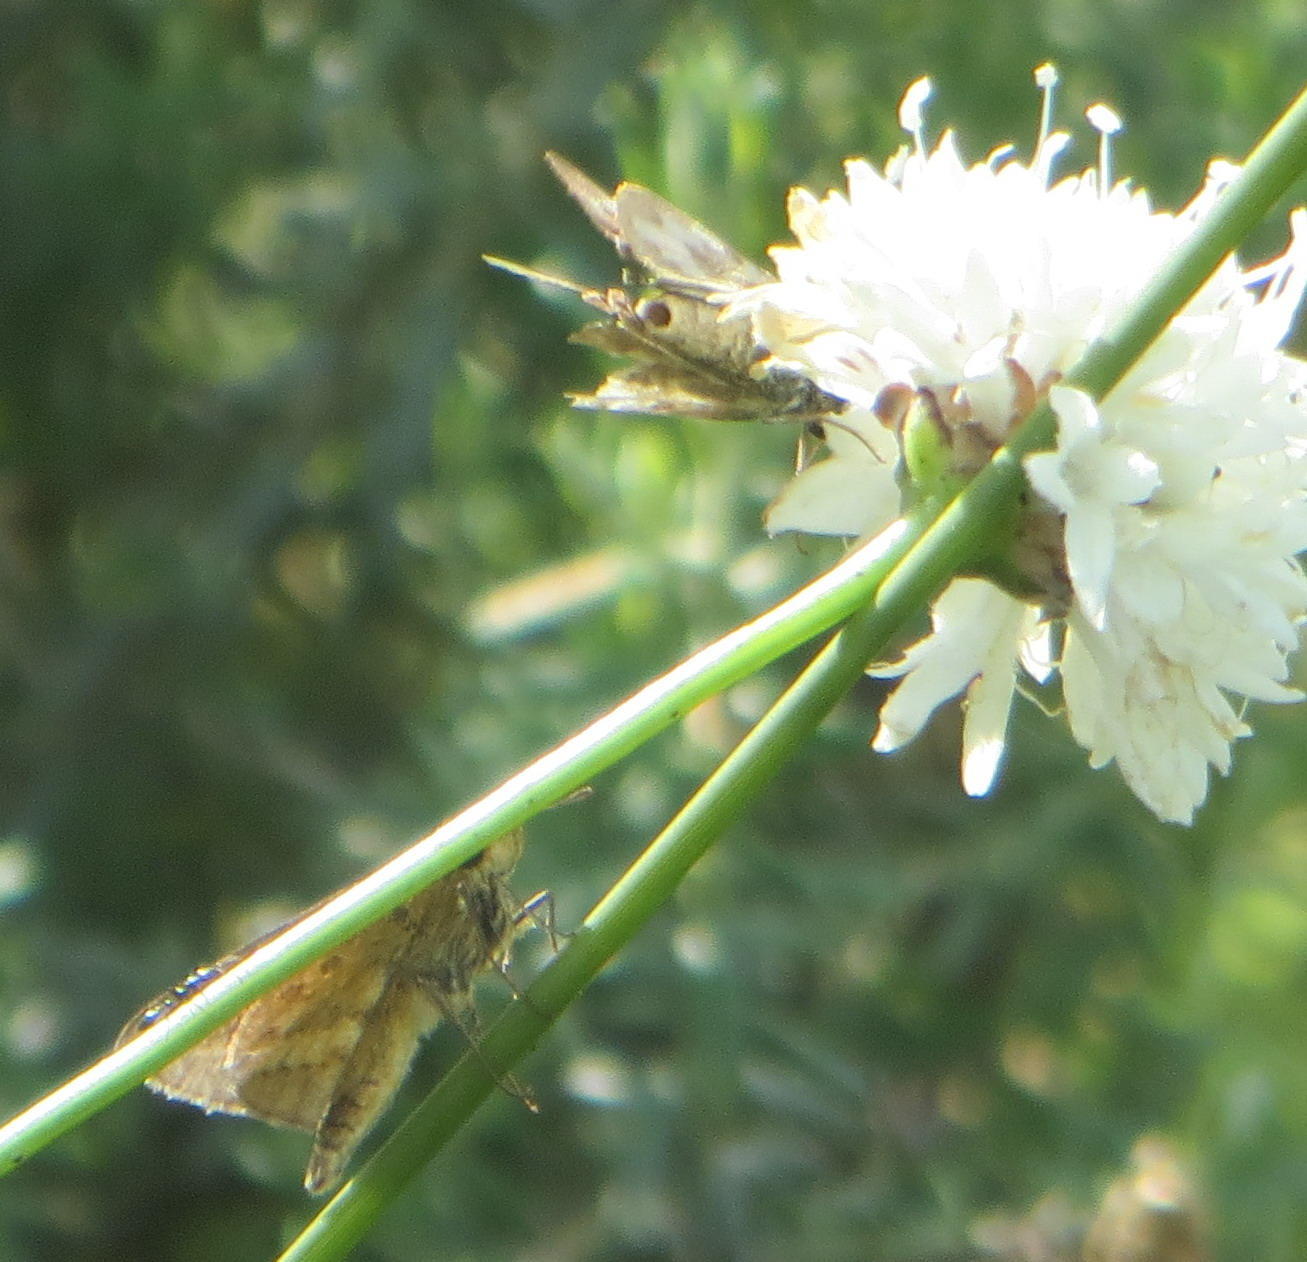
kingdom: Animalia
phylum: Arthropoda
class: Insecta
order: Lepidoptera
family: Hesperiidae
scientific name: Hesperiidae
